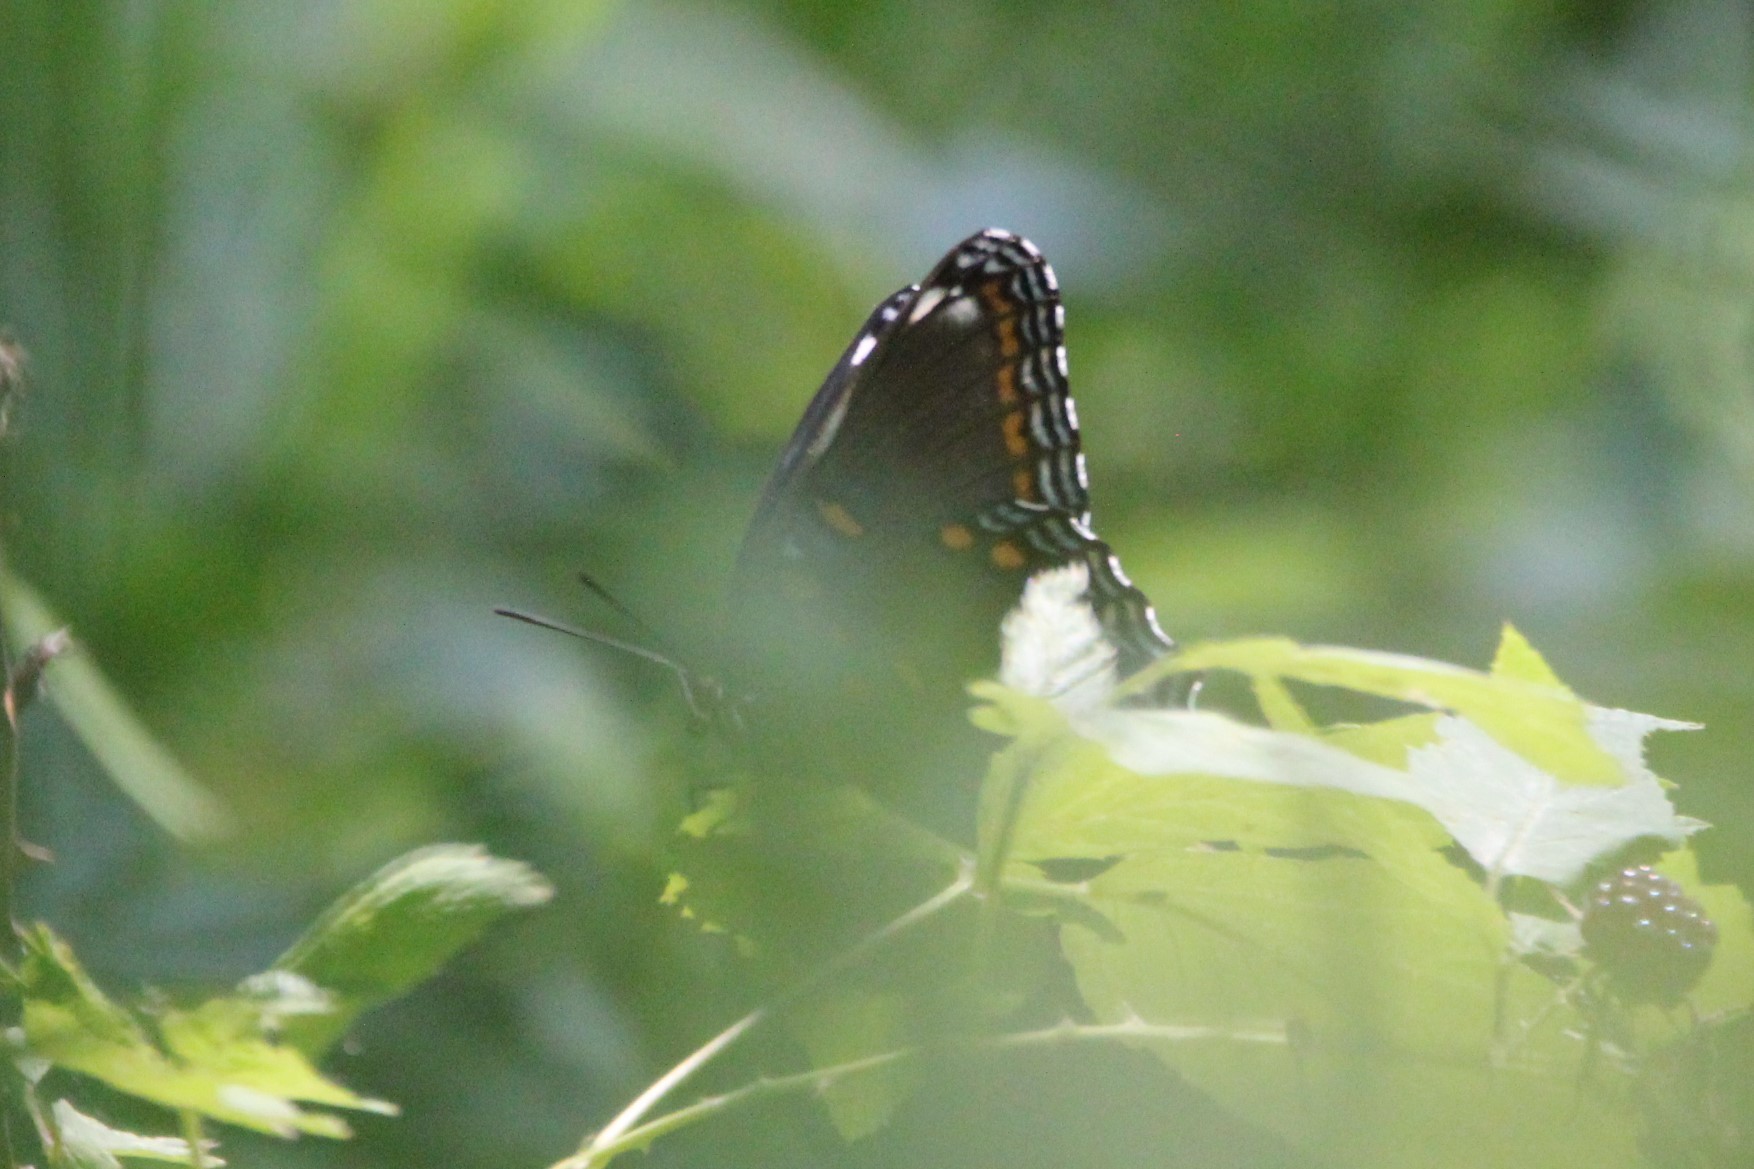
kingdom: Animalia
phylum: Arthropoda
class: Insecta
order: Lepidoptera
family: Nymphalidae
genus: Limenitis
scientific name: Limenitis astyanax
